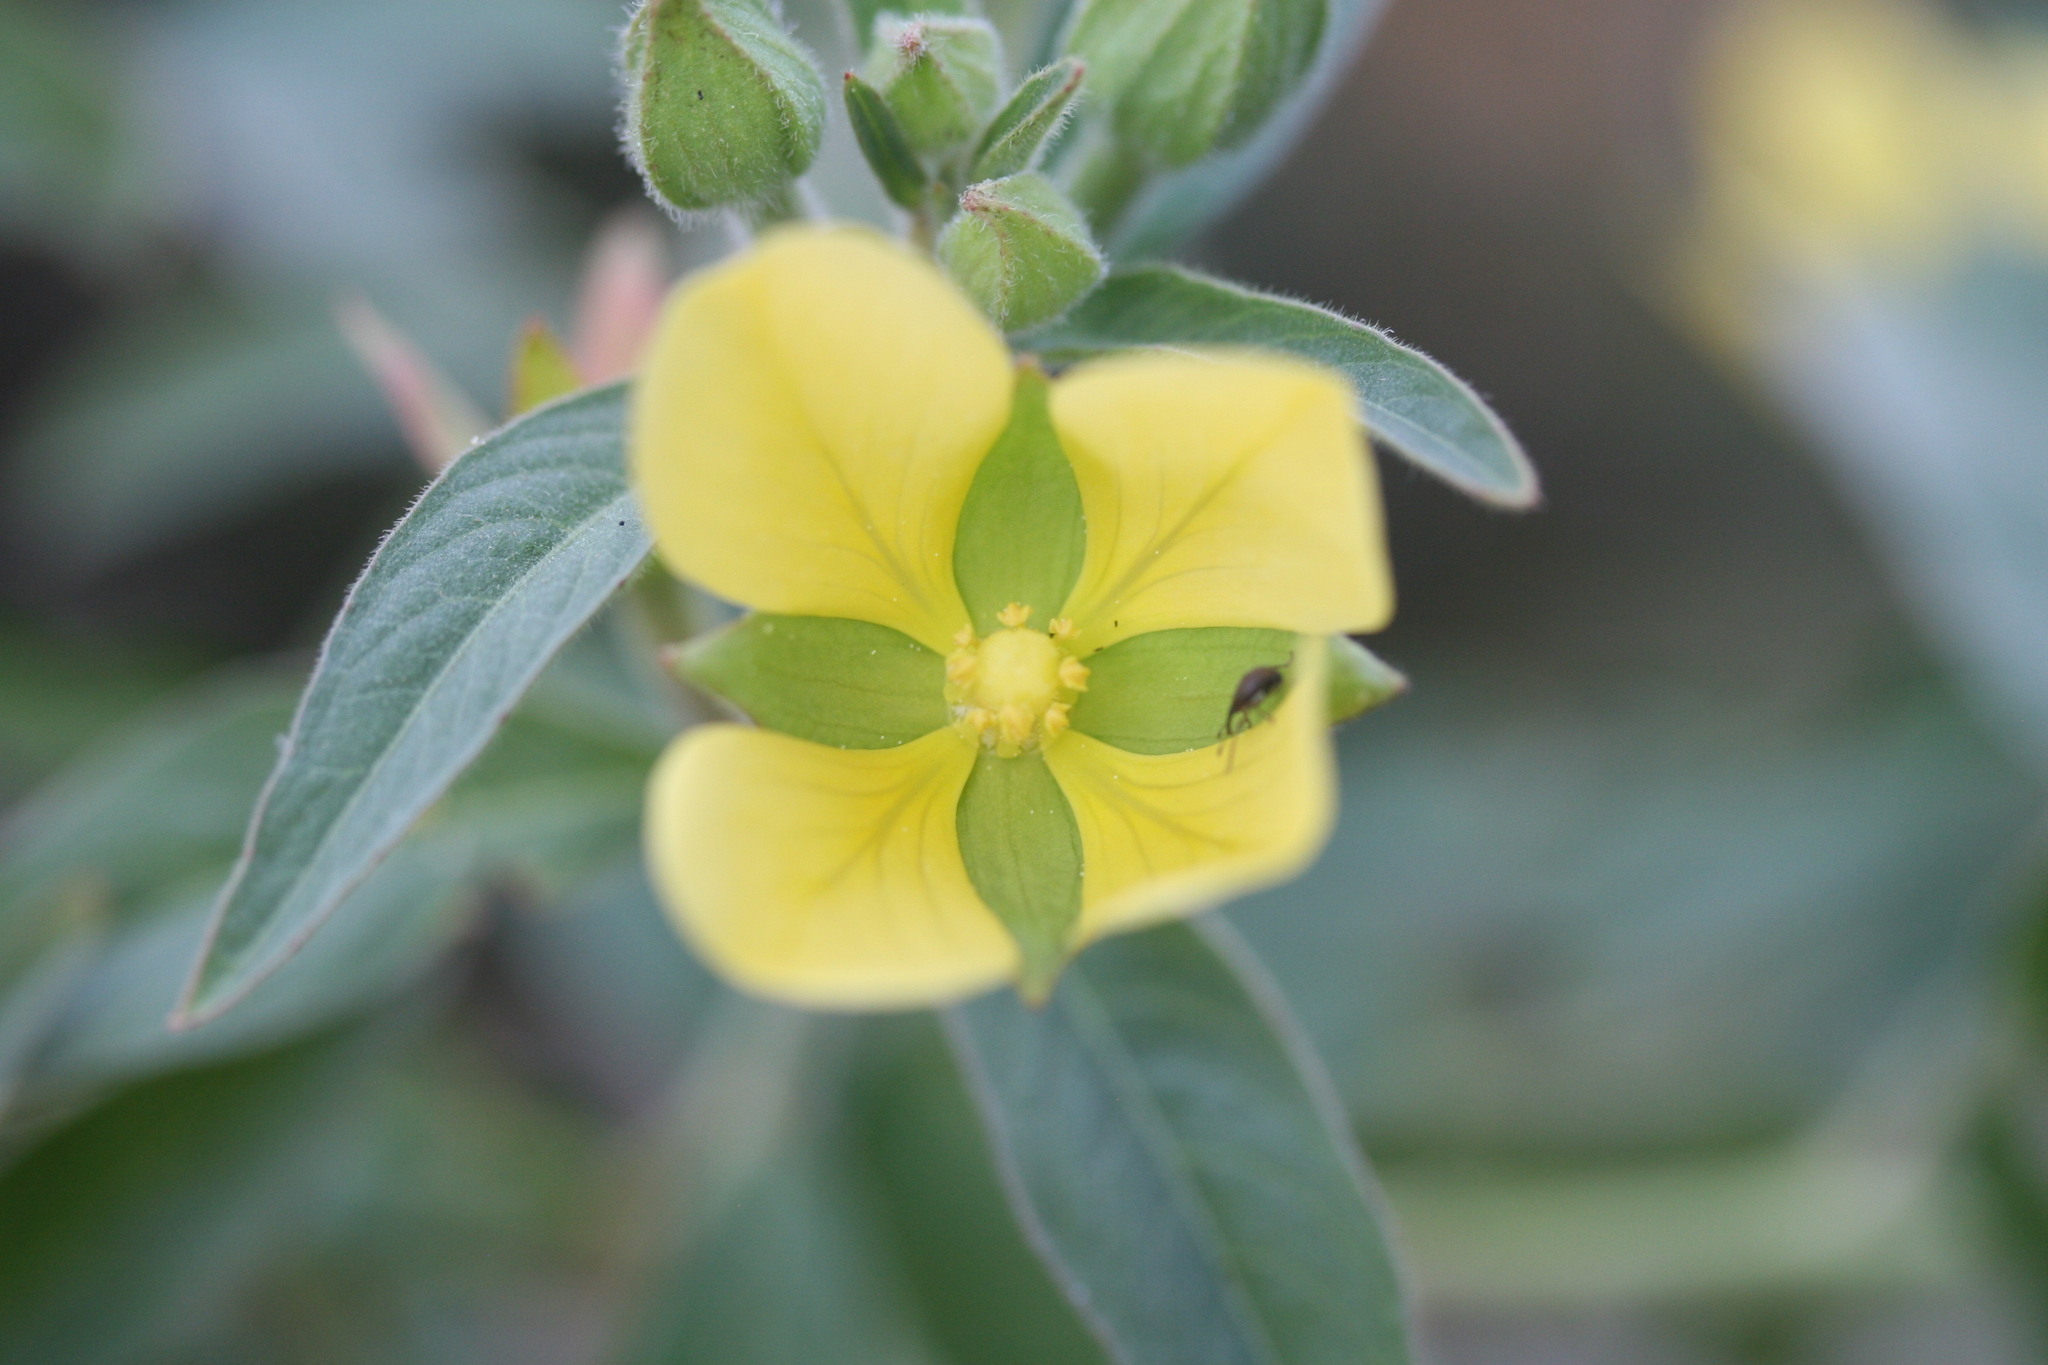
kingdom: Plantae
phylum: Tracheophyta
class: Magnoliopsida
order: Myrtales
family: Onagraceae
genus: Ludwigia
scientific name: Ludwigia octovalvis
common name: Water-primrose
